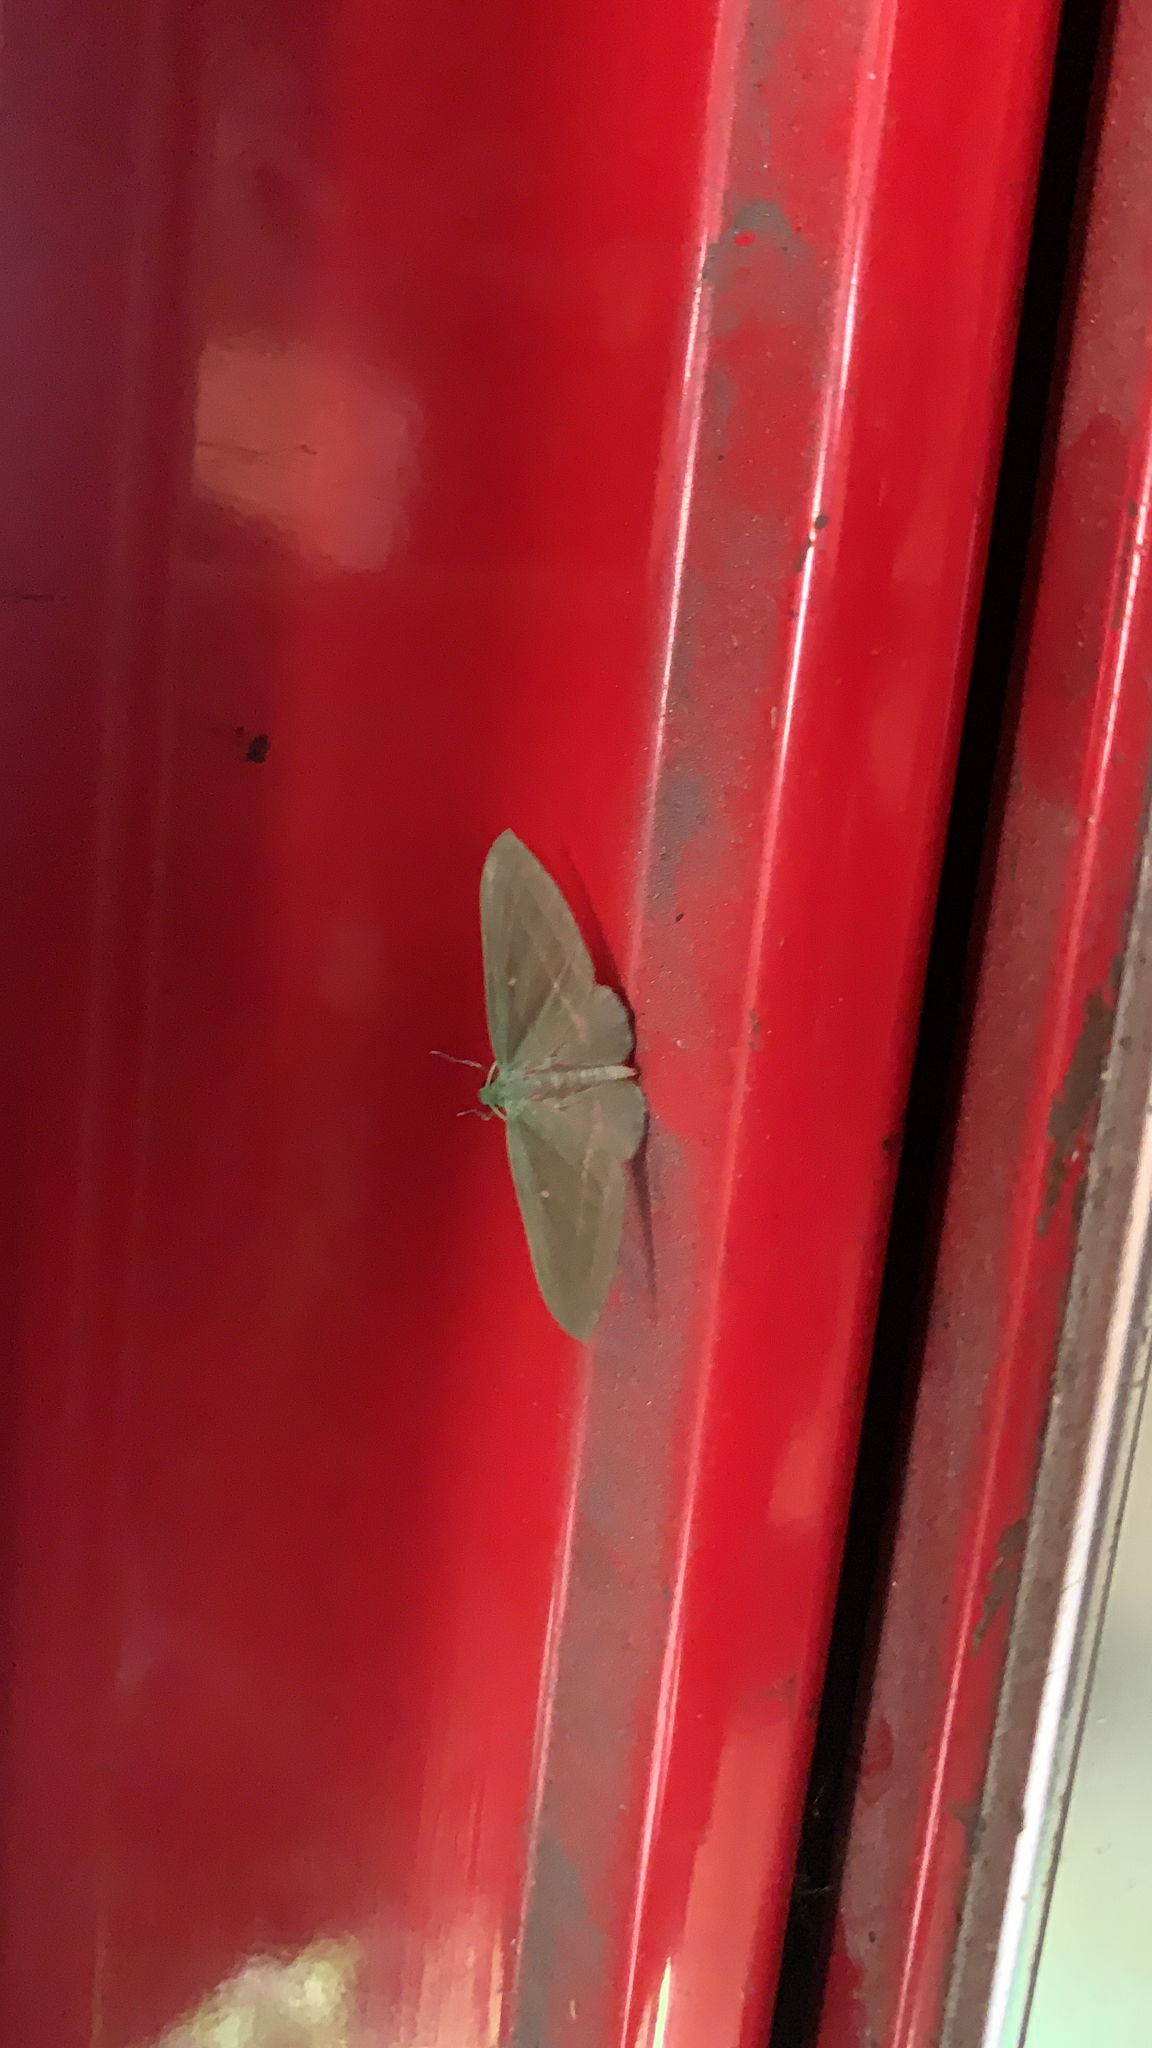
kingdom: Animalia
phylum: Arthropoda
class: Insecta
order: Lepidoptera
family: Geometridae
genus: Dyspteris
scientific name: Dyspteris abortivaria
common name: Bad-wing
